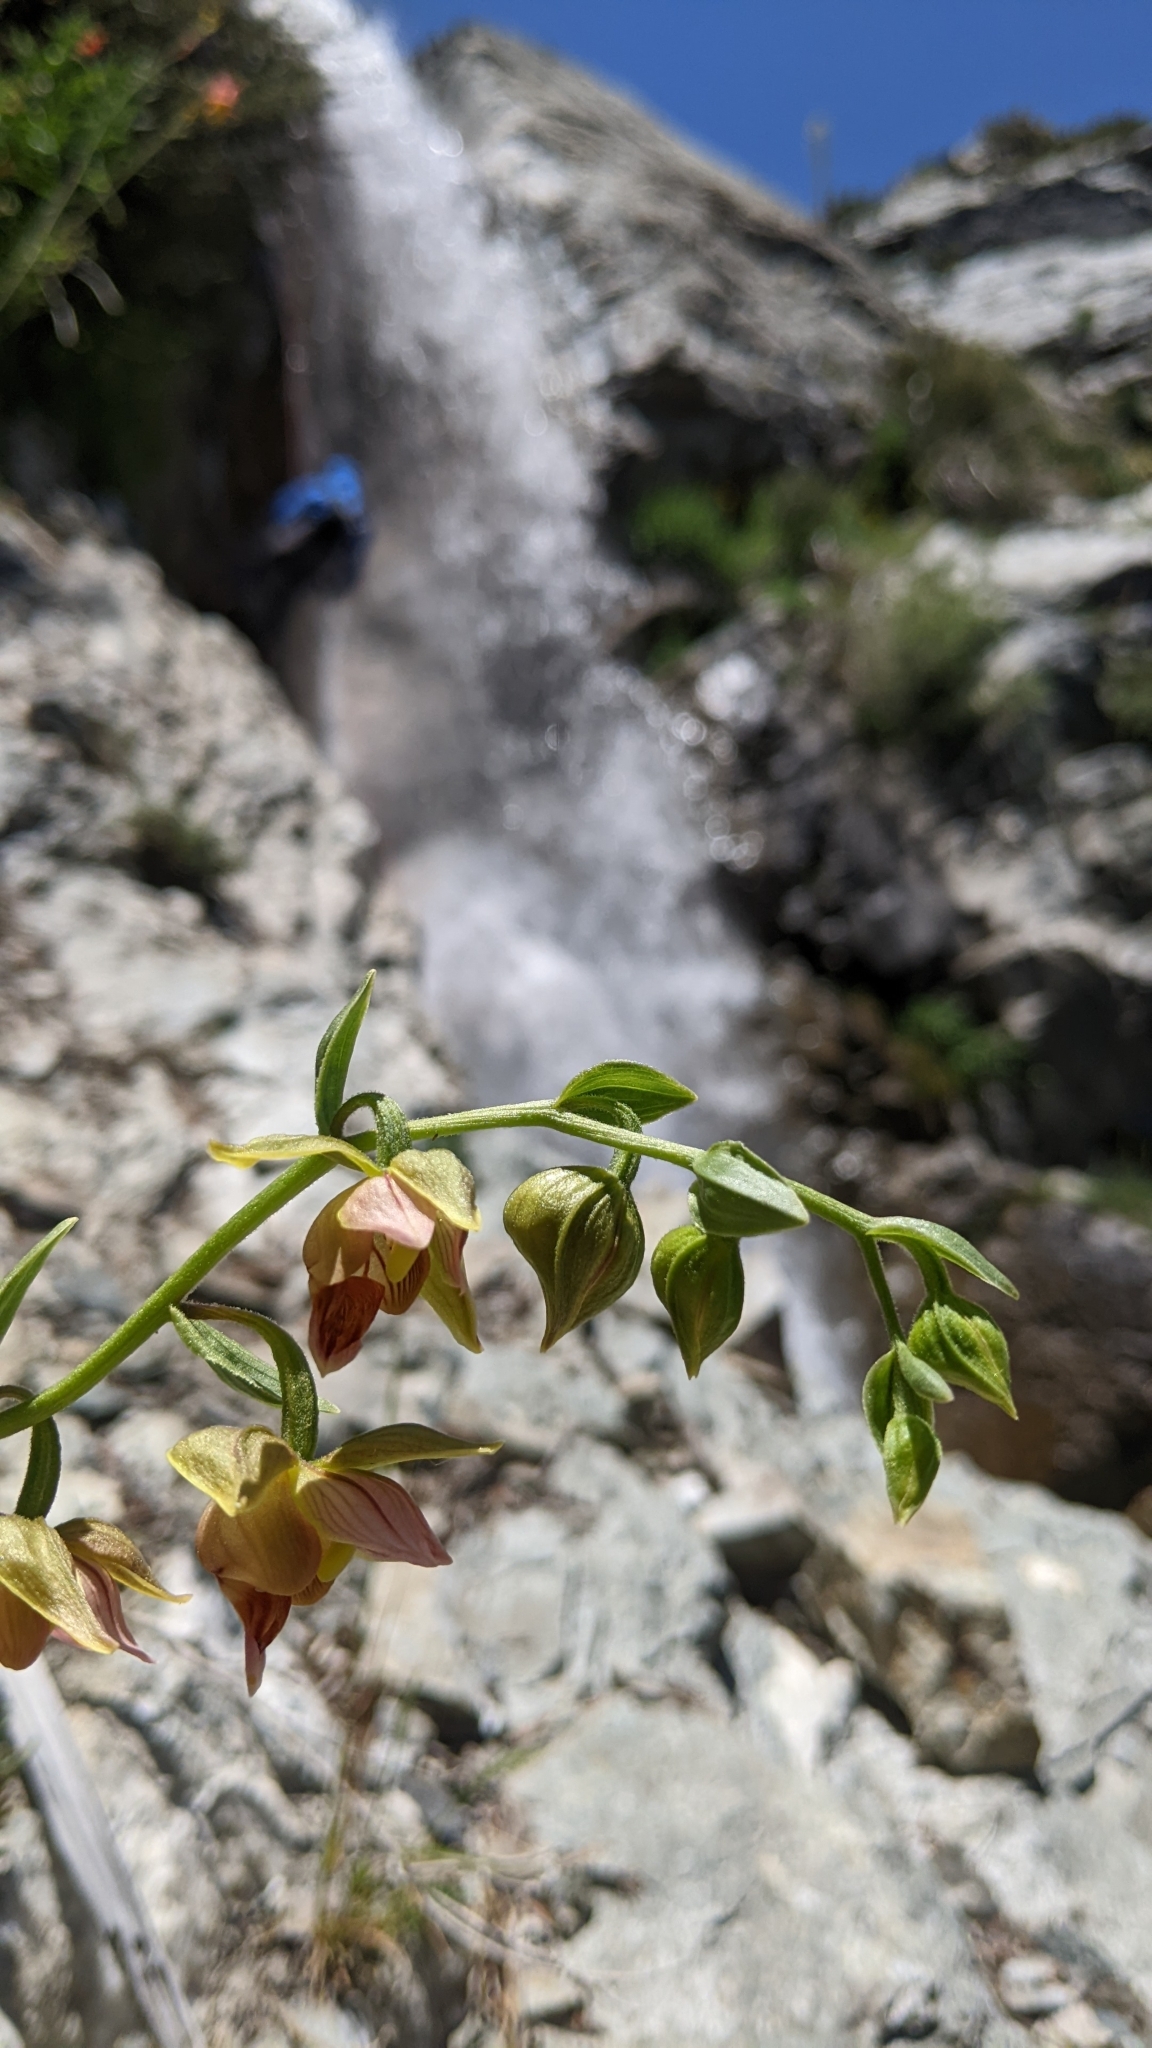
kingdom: Plantae
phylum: Tracheophyta
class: Liliopsida
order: Asparagales
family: Orchidaceae
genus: Epipactis
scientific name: Epipactis gigantea
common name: Chatterbox
